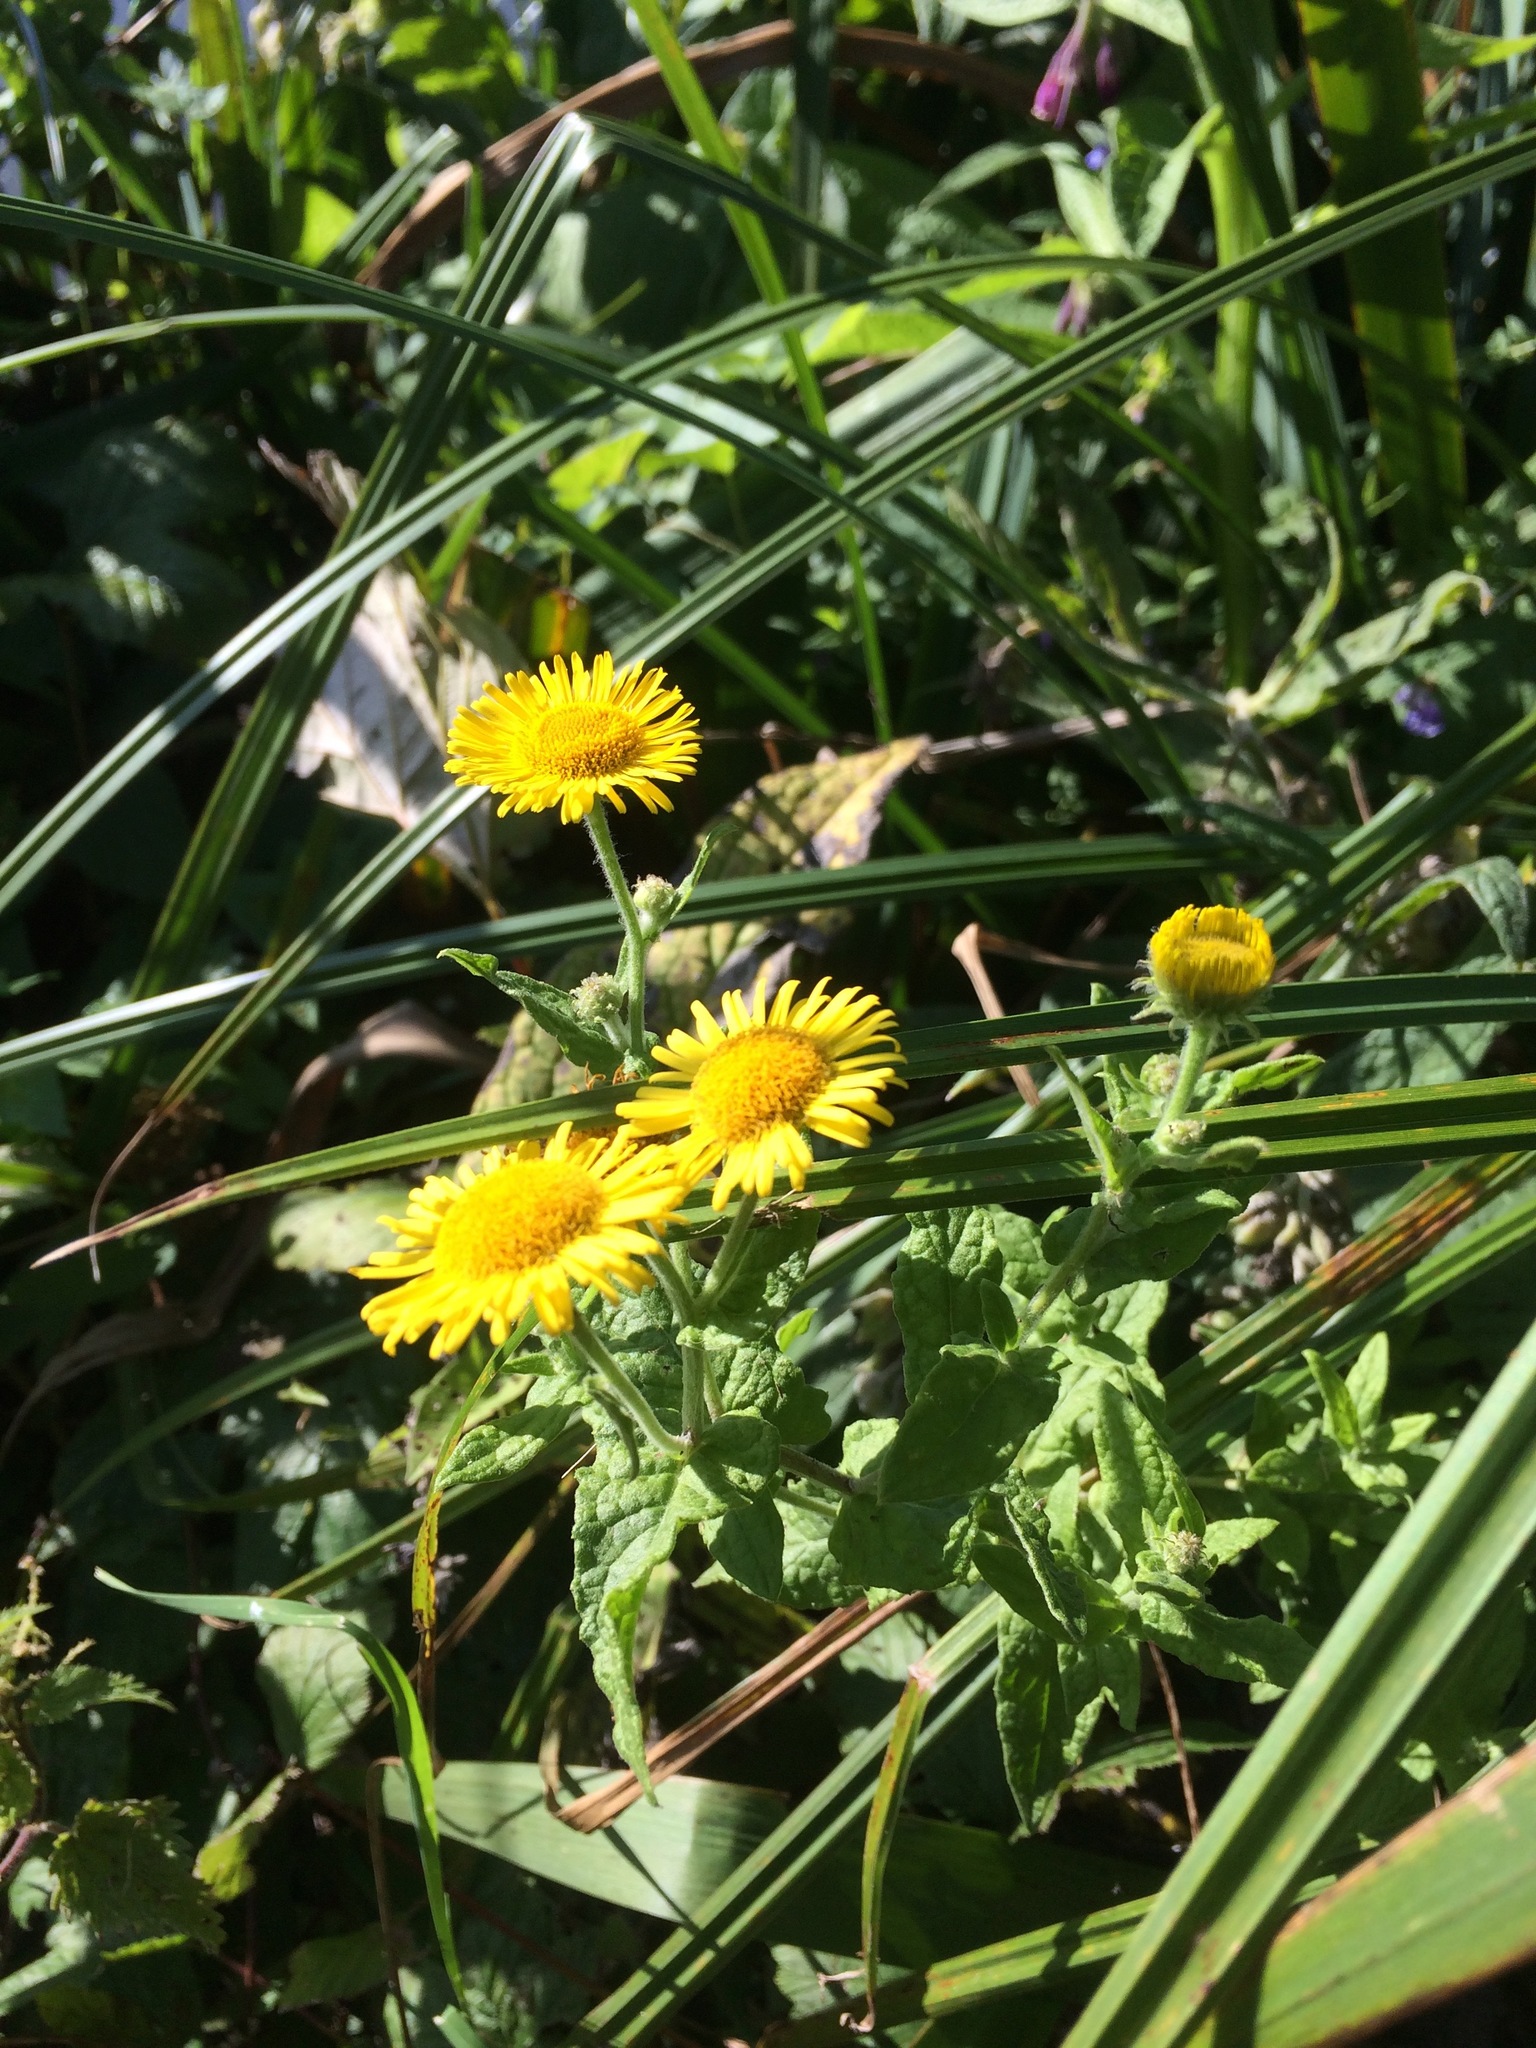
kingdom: Plantae
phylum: Tracheophyta
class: Magnoliopsida
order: Asterales
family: Asteraceae
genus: Pulicaria
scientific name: Pulicaria dysenterica
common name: Common fleabane
